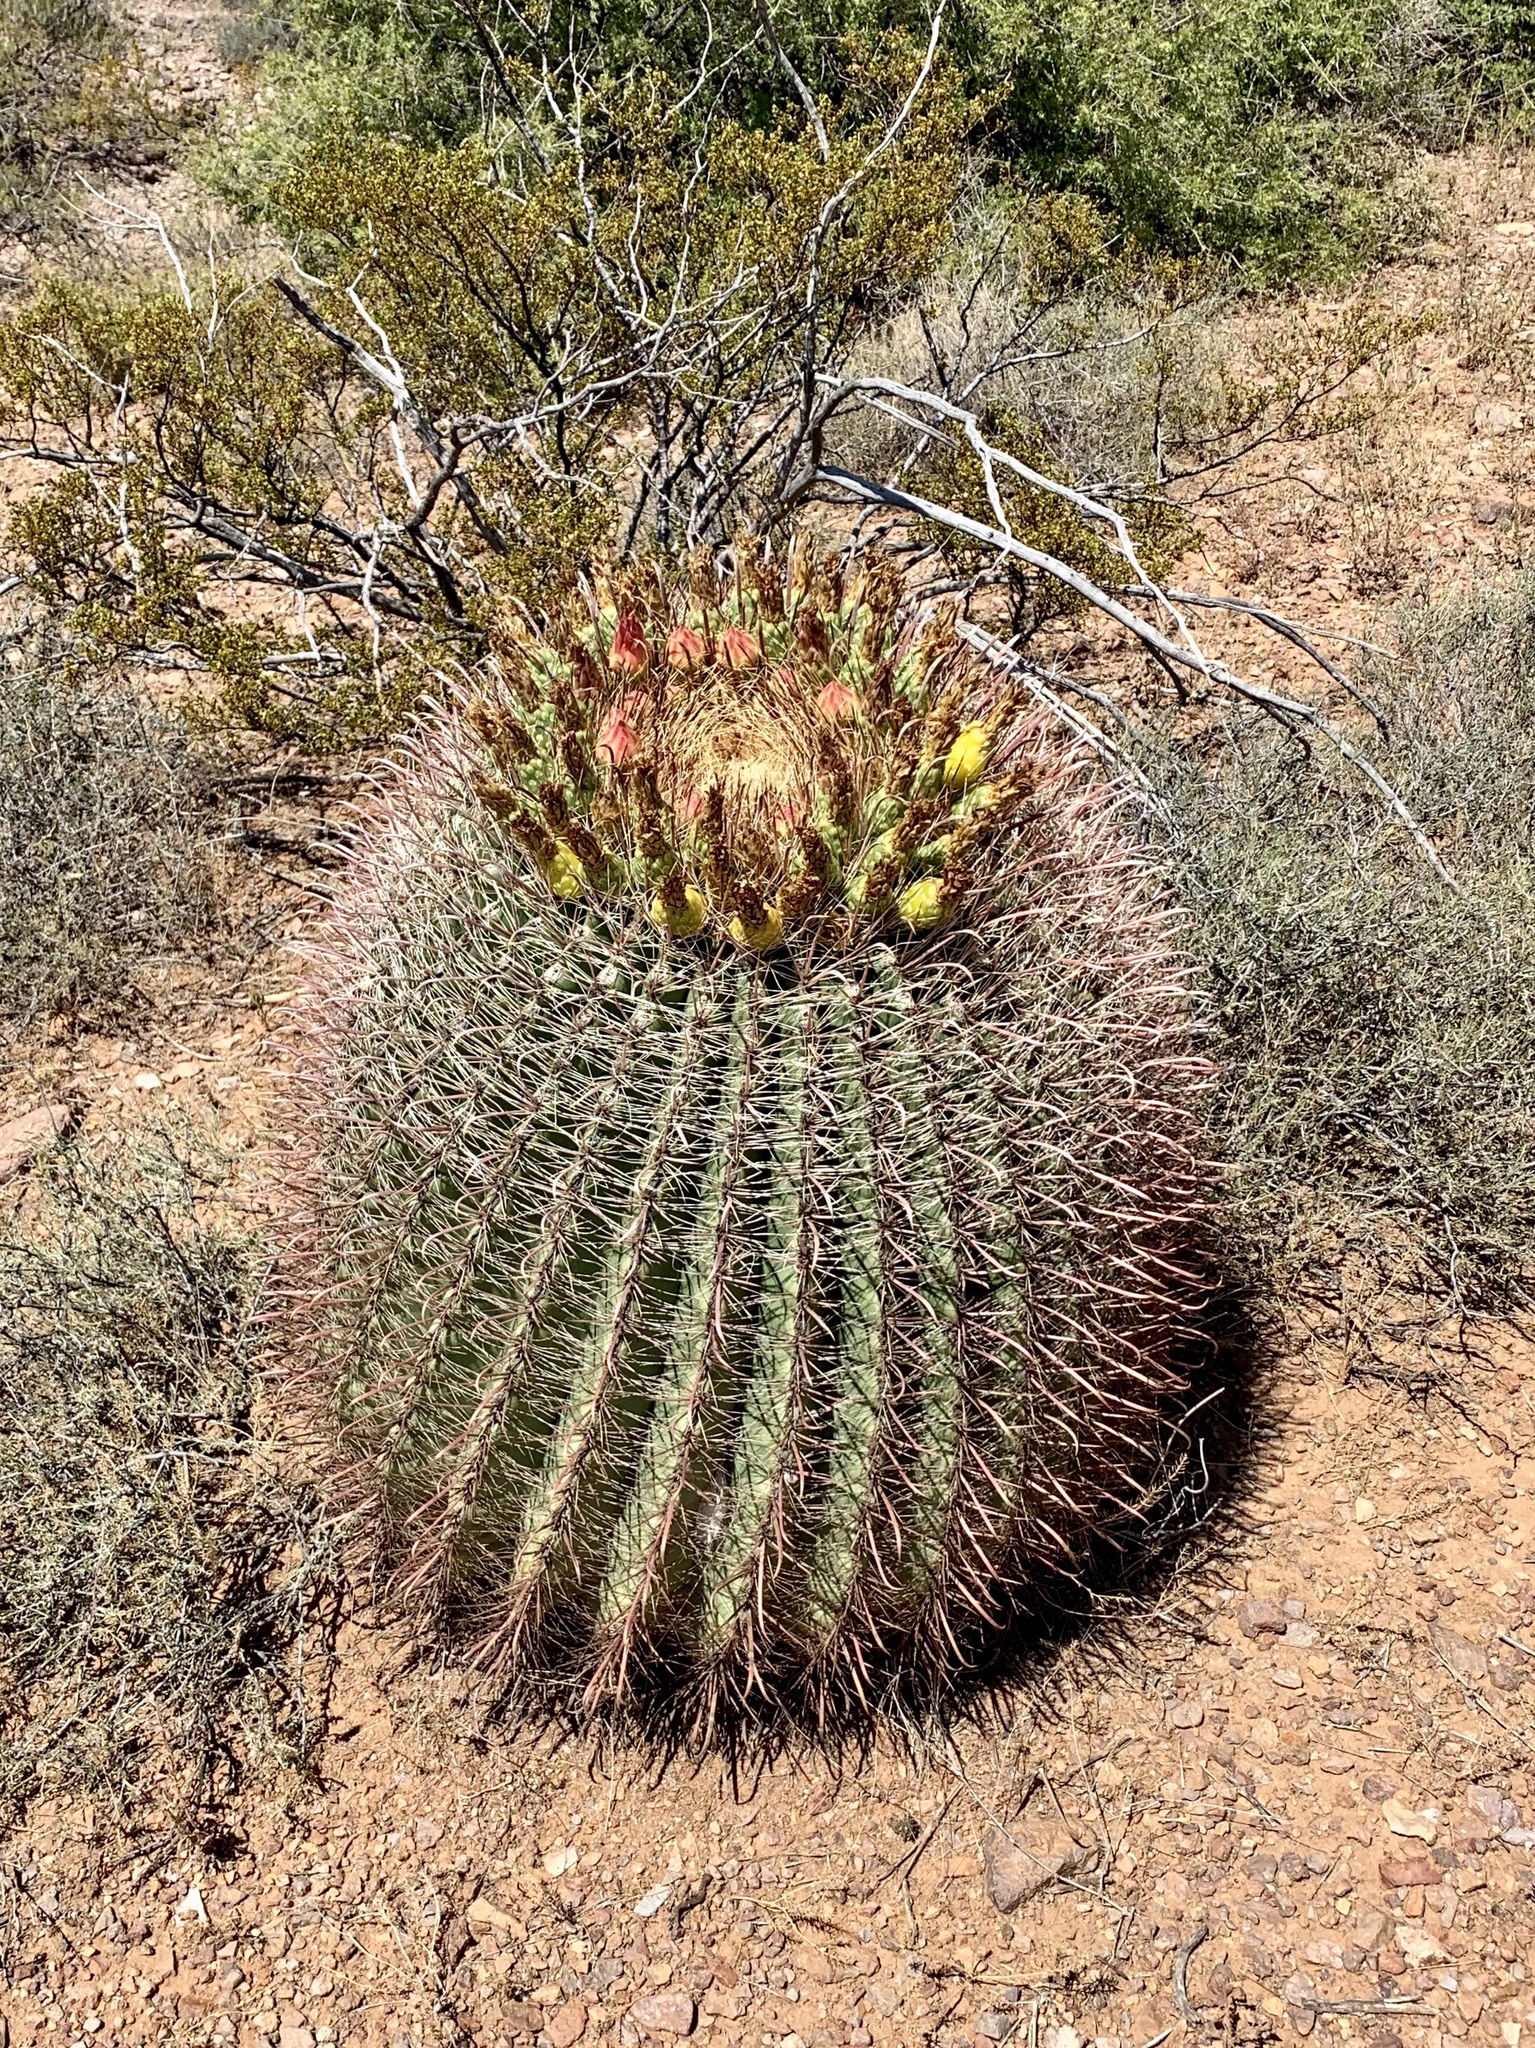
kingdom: Plantae
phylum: Tracheophyta
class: Magnoliopsida
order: Caryophyllales
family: Cactaceae
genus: Ferocactus
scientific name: Ferocactus wislizeni
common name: Candy barrel cactus
